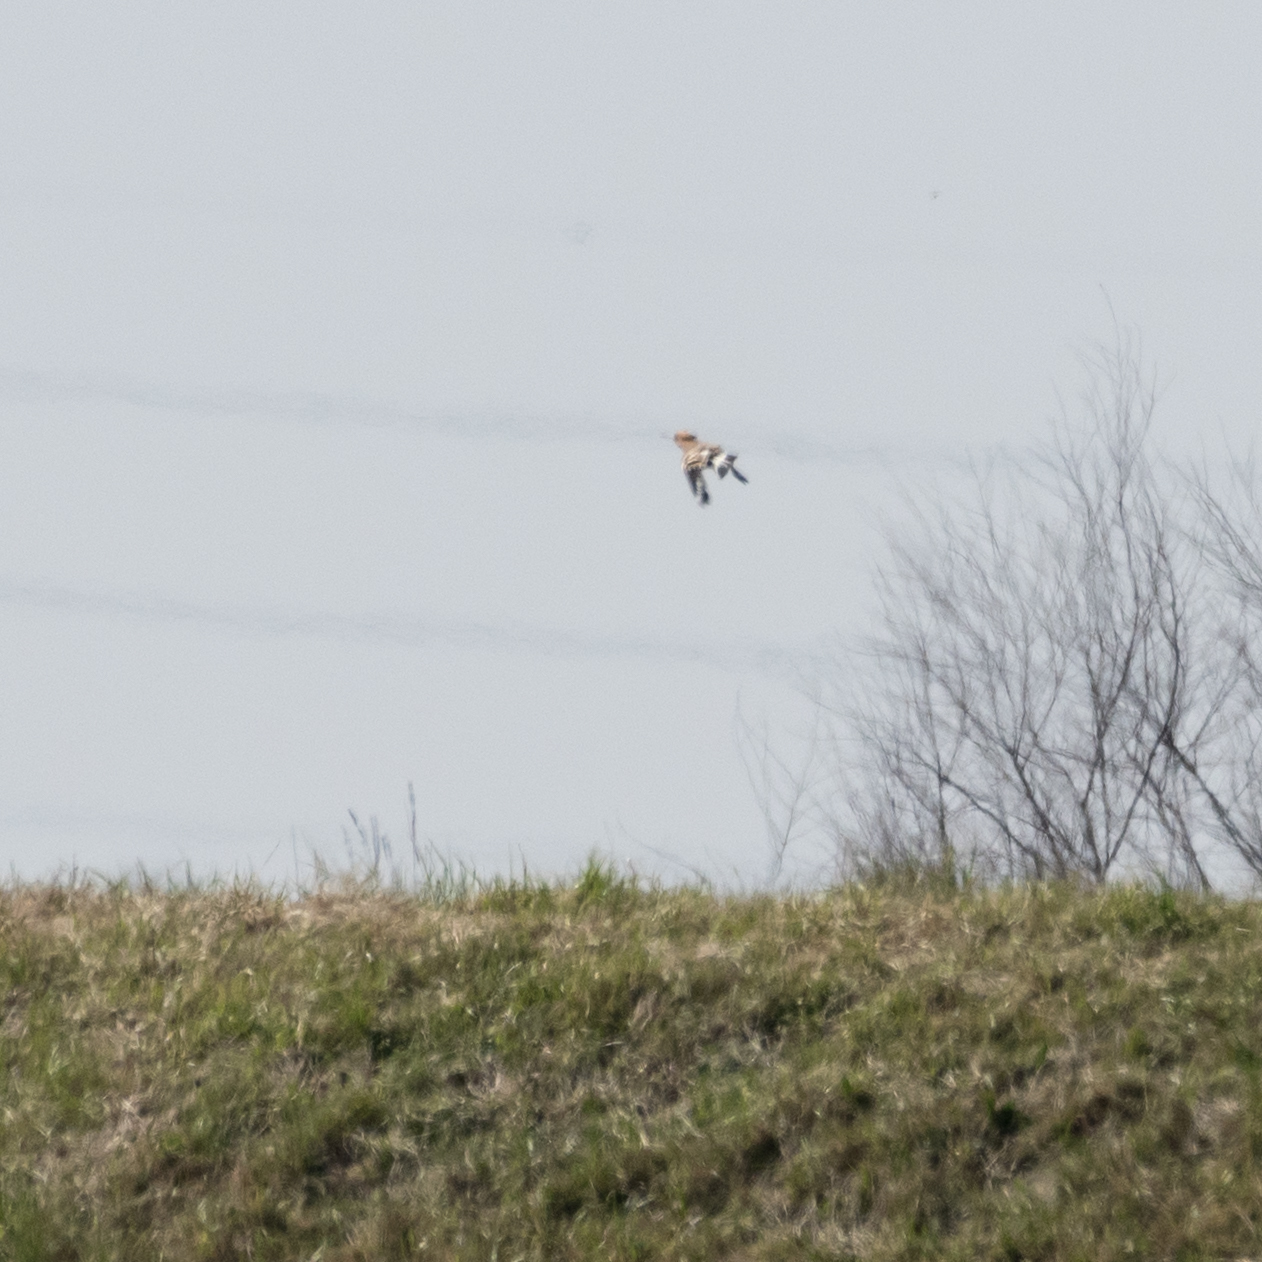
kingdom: Animalia
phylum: Chordata
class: Aves
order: Bucerotiformes
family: Upupidae
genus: Upupa
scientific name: Upupa epops
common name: Eurasian hoopoe
